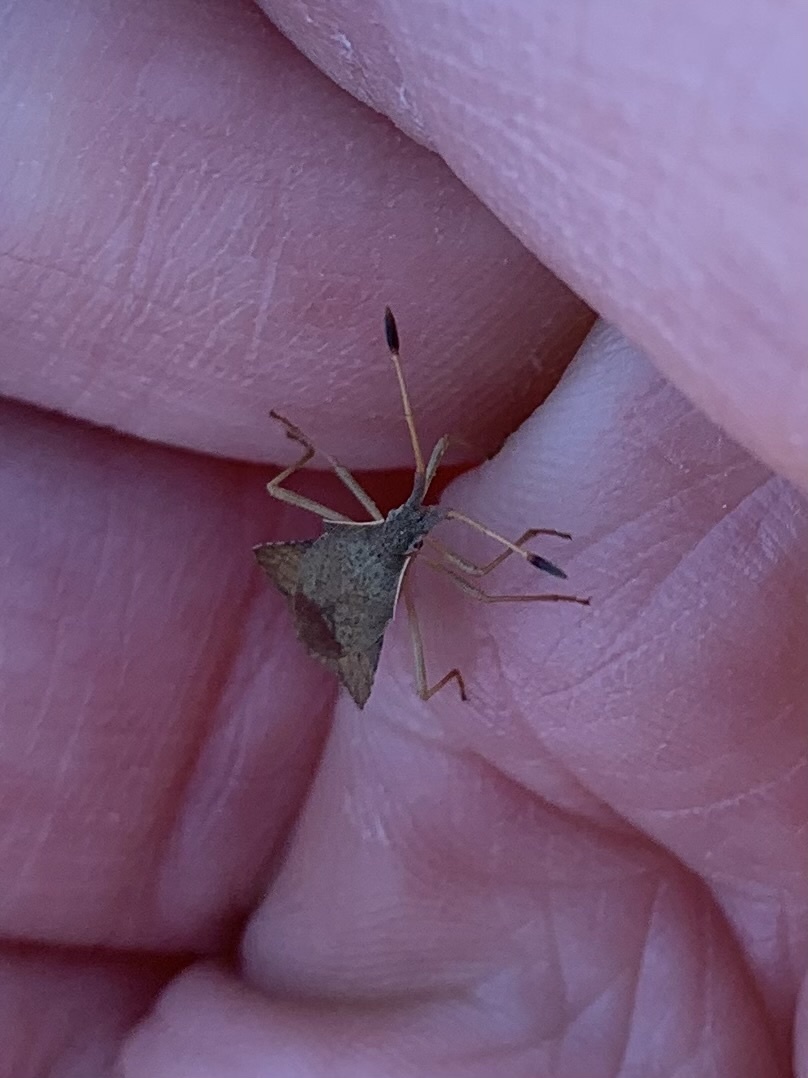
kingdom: Animalia
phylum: Arthropoda
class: Insecta
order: Hemiptera
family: Coreidae
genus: Syromastus
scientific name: Syromastus rhombeus
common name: Rhombic leatherbug
